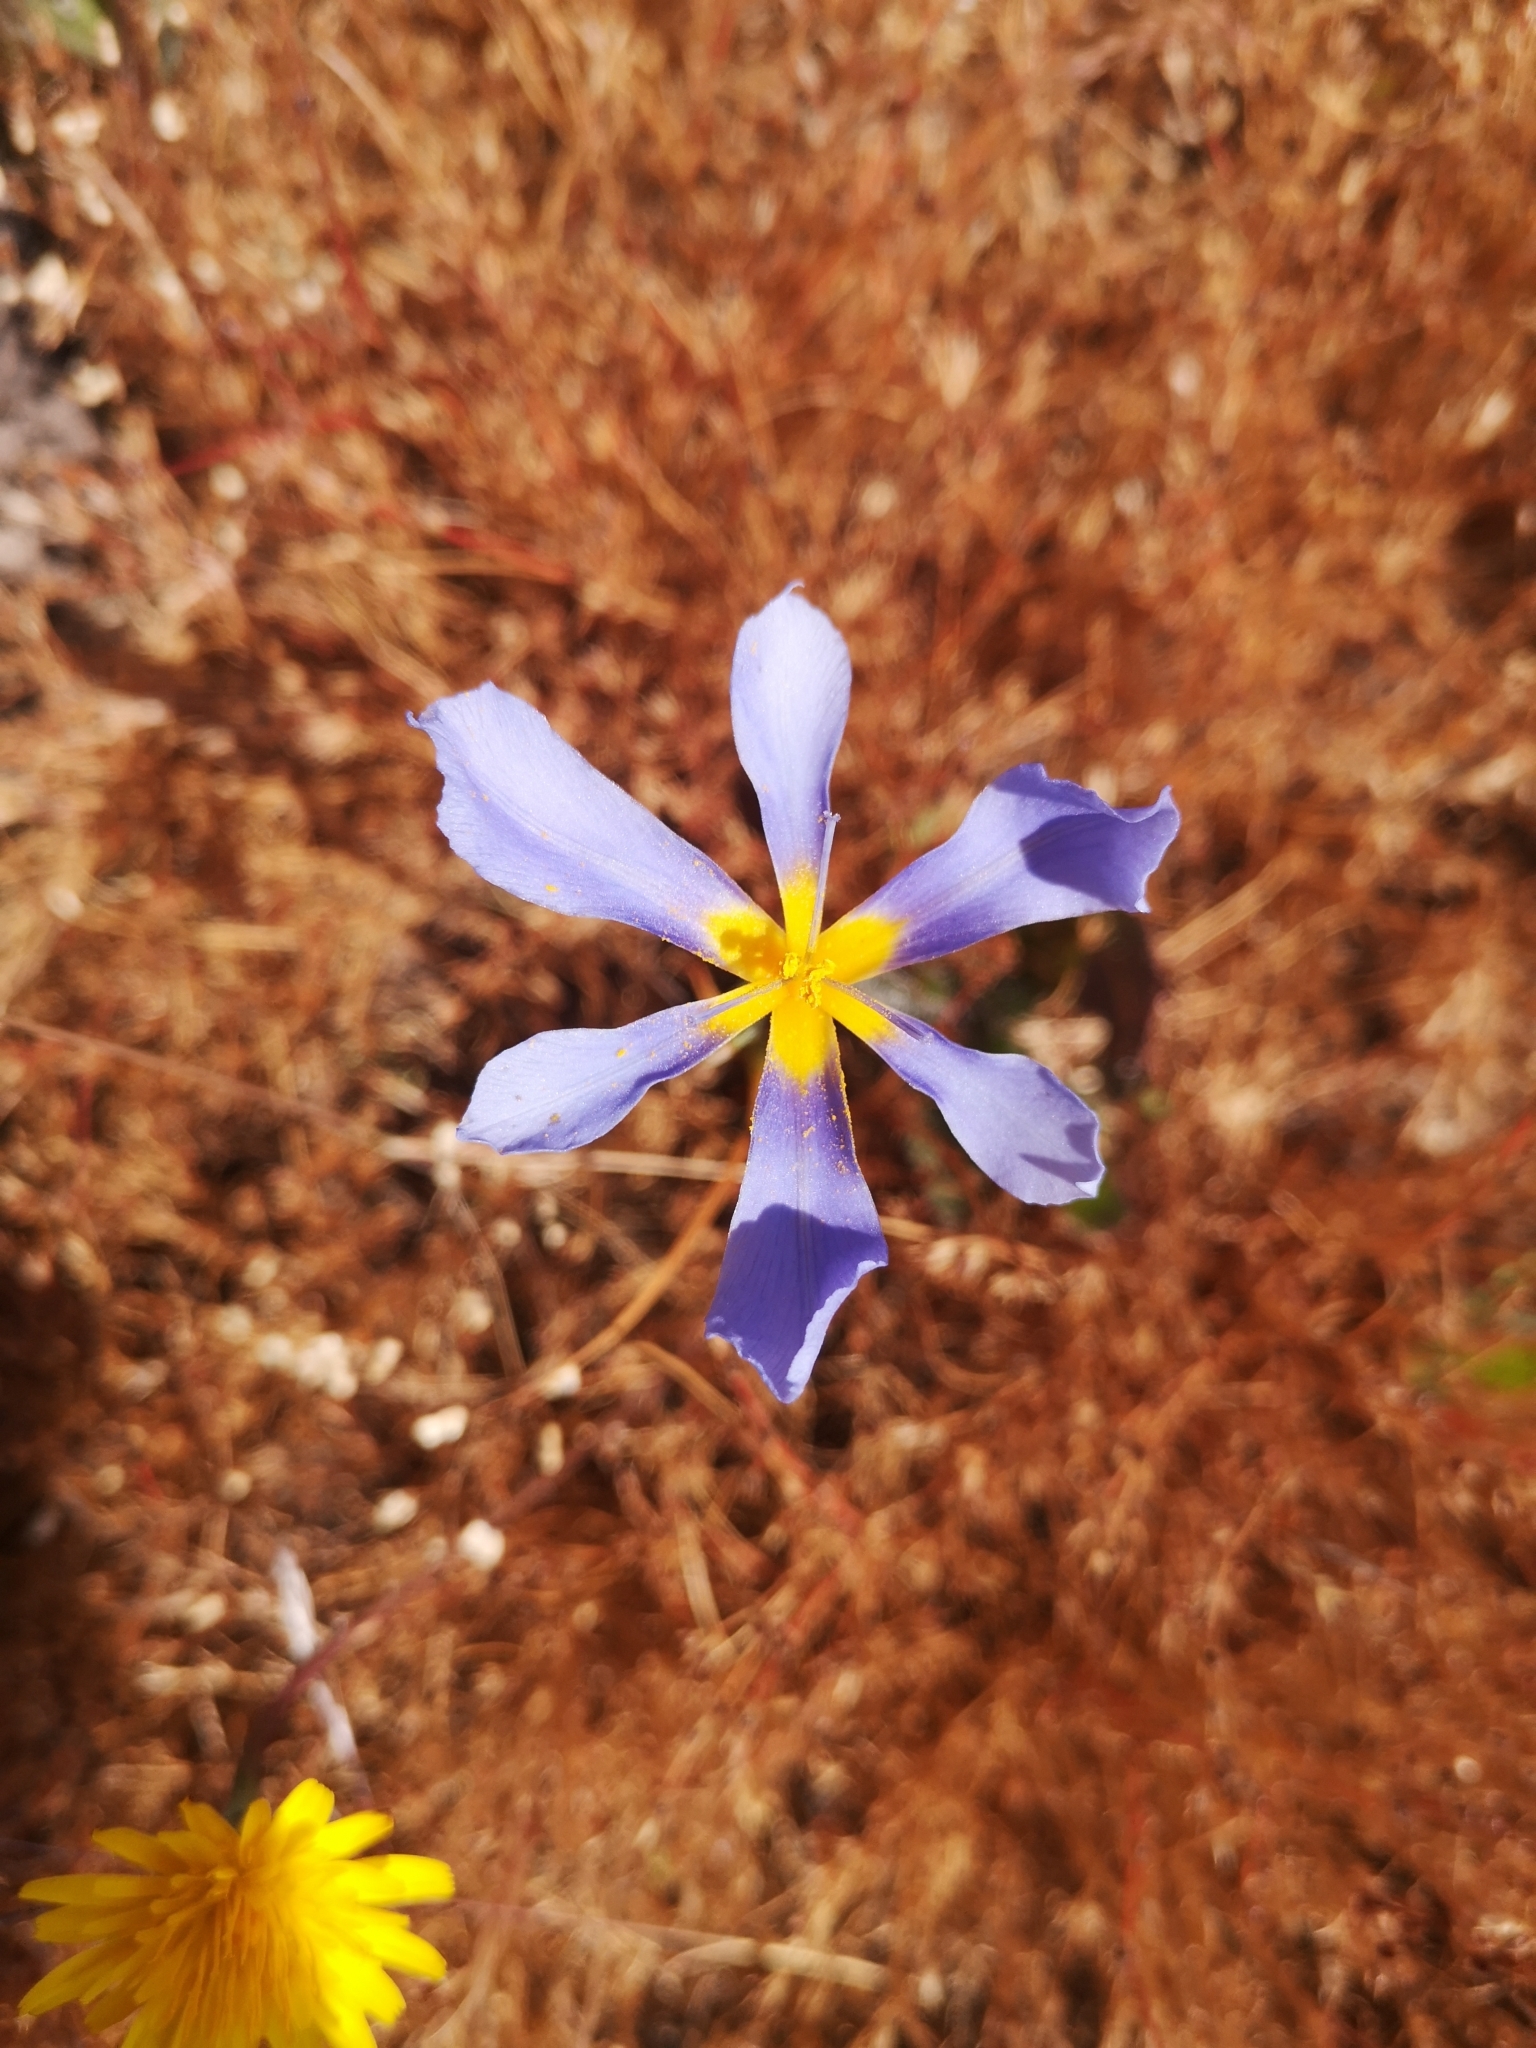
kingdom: Plantae
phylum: Tracheophyta
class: Liliopsida
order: Asparagales
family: Iridaceae
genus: Calydorea
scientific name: Calydorea xiphioides
